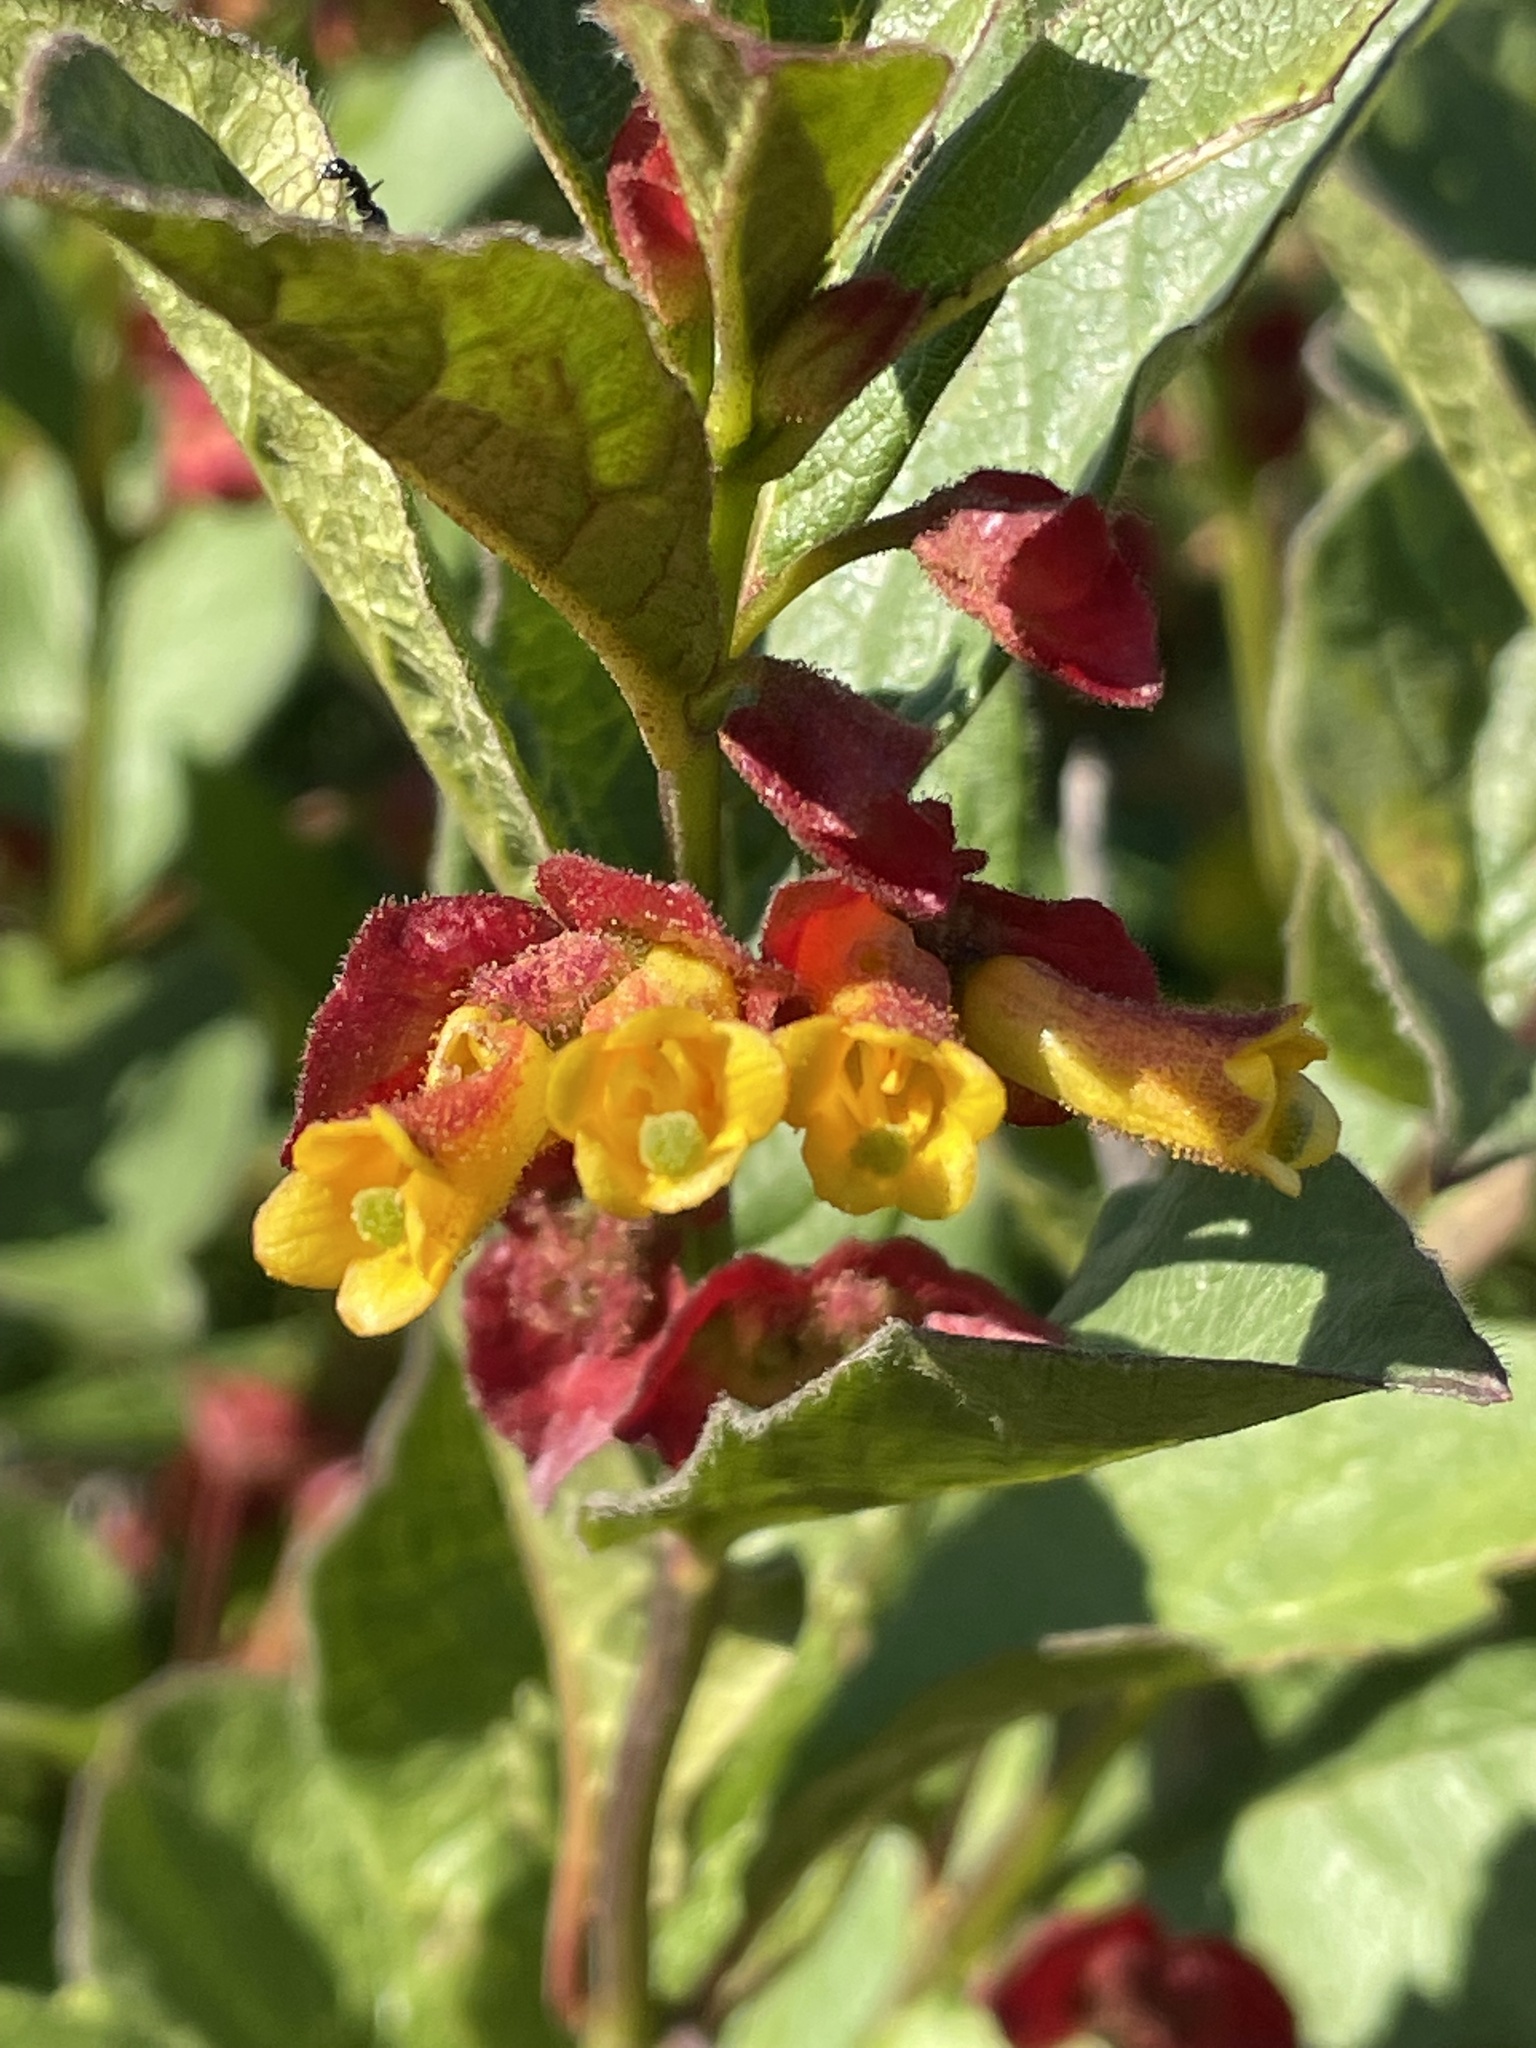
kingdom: Plantae
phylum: Tracheophyta
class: Magnoliopsida
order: Dipsacales
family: Caprifoliaceae
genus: Lonicera
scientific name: Lonicera involucrata
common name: Californian honeysuckle
